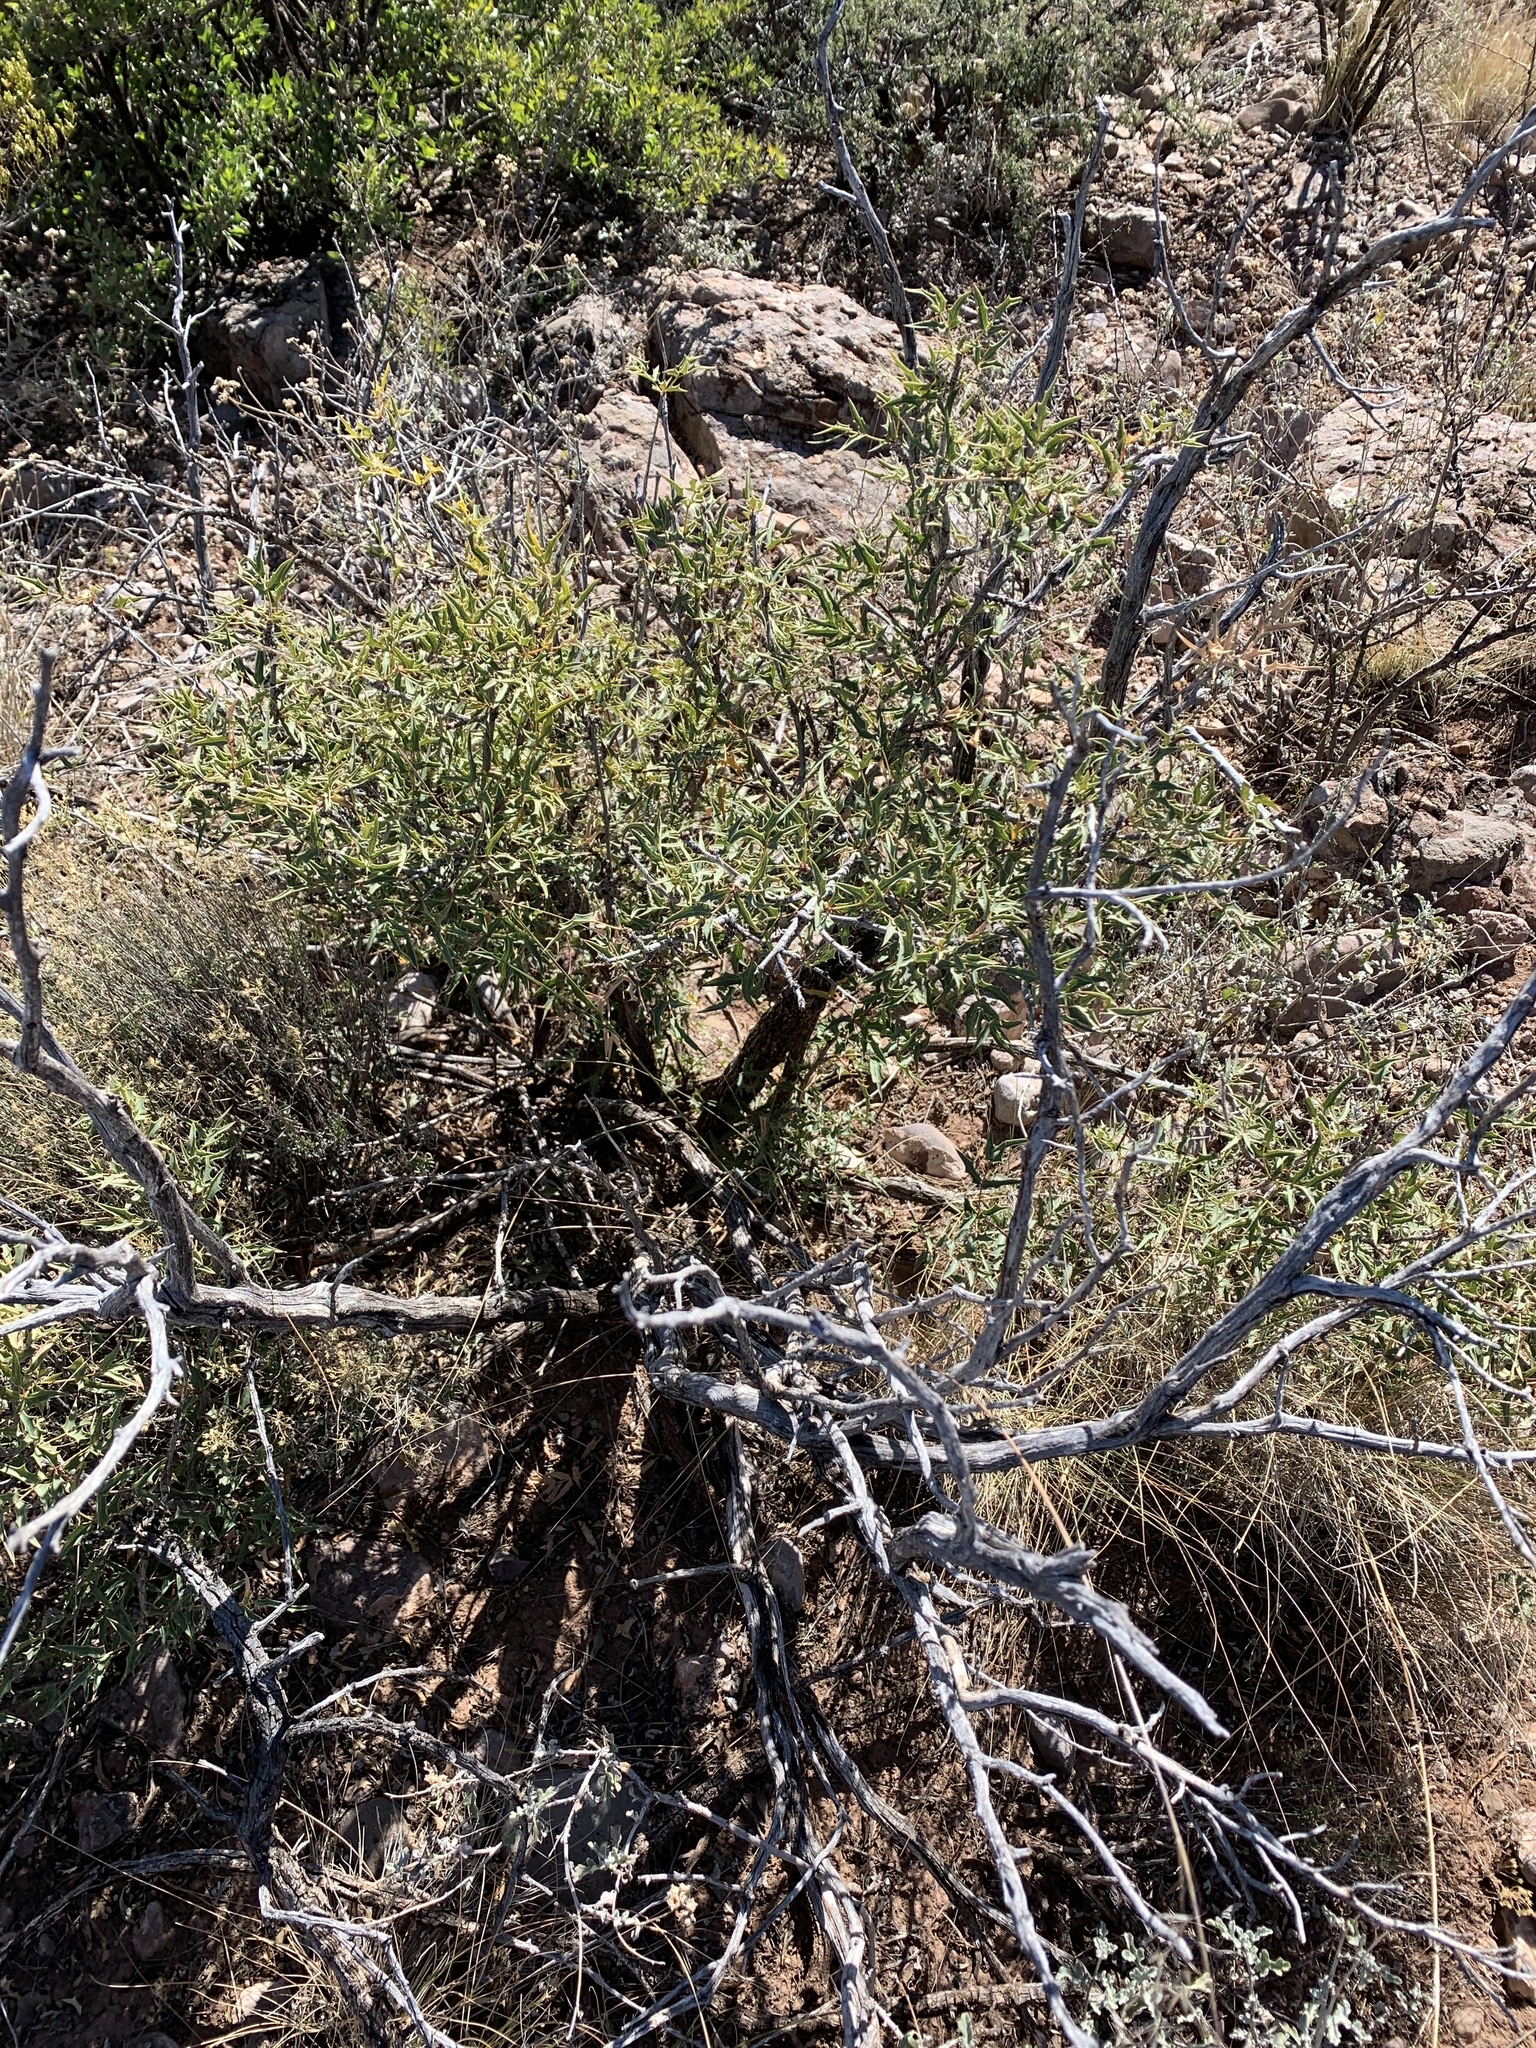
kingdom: Plantae
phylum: Tracheophyta
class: Magnoliopsida
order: Ranunculales
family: Berberidaceae
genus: Alloberberis
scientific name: Alloberberis haematocarpa
